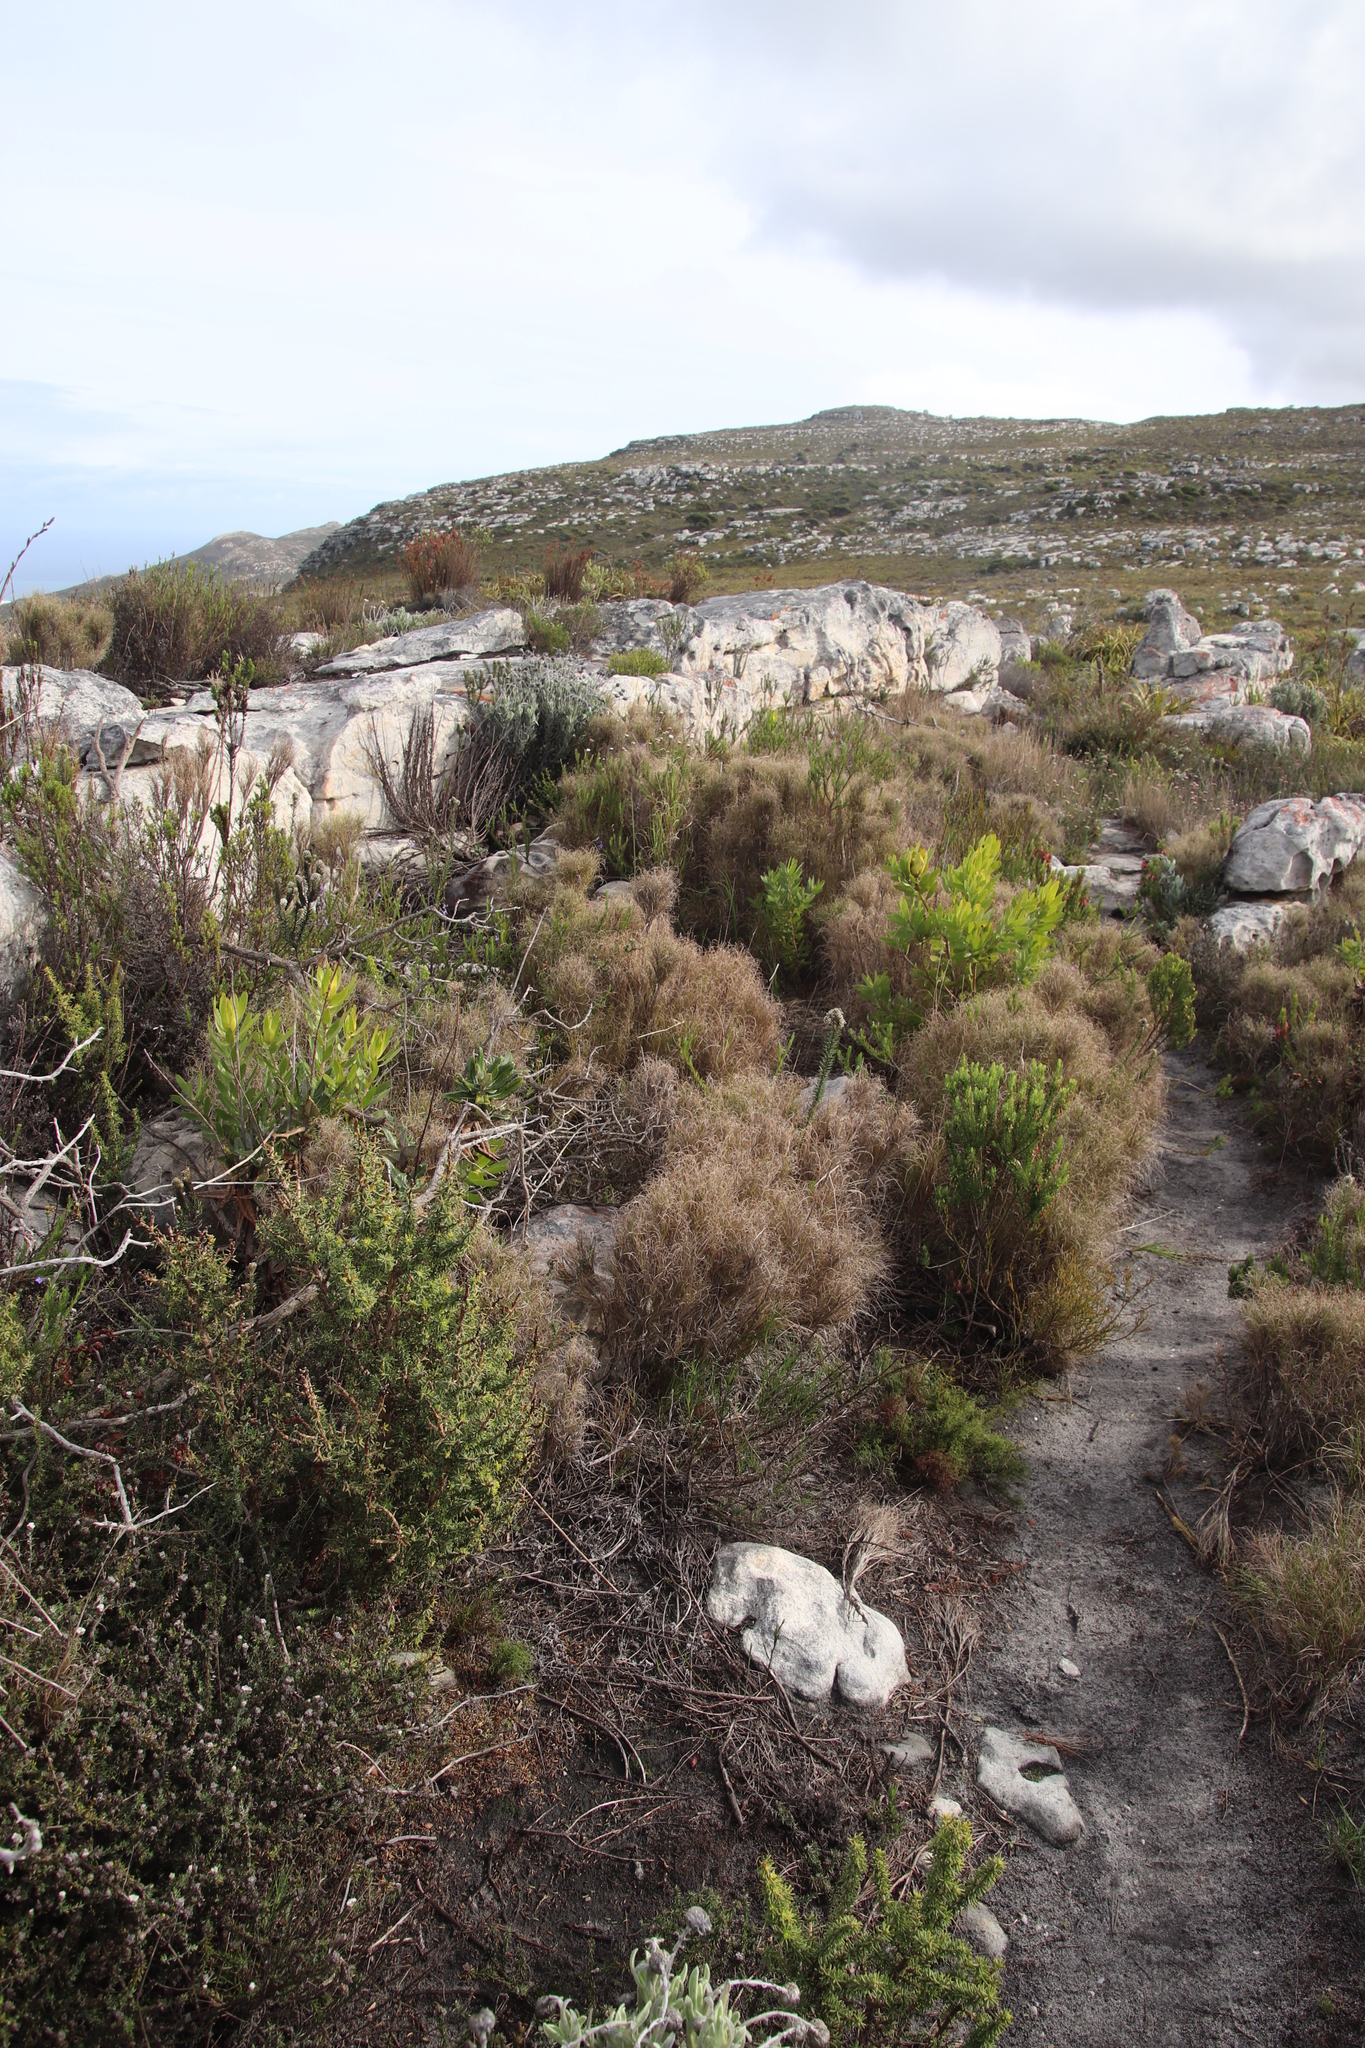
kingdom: Plantae
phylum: Tracheophyta
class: Liliopsida
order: Poales
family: Poaceae
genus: Pseudopentameris
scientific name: Pseudopentameris macrantha
